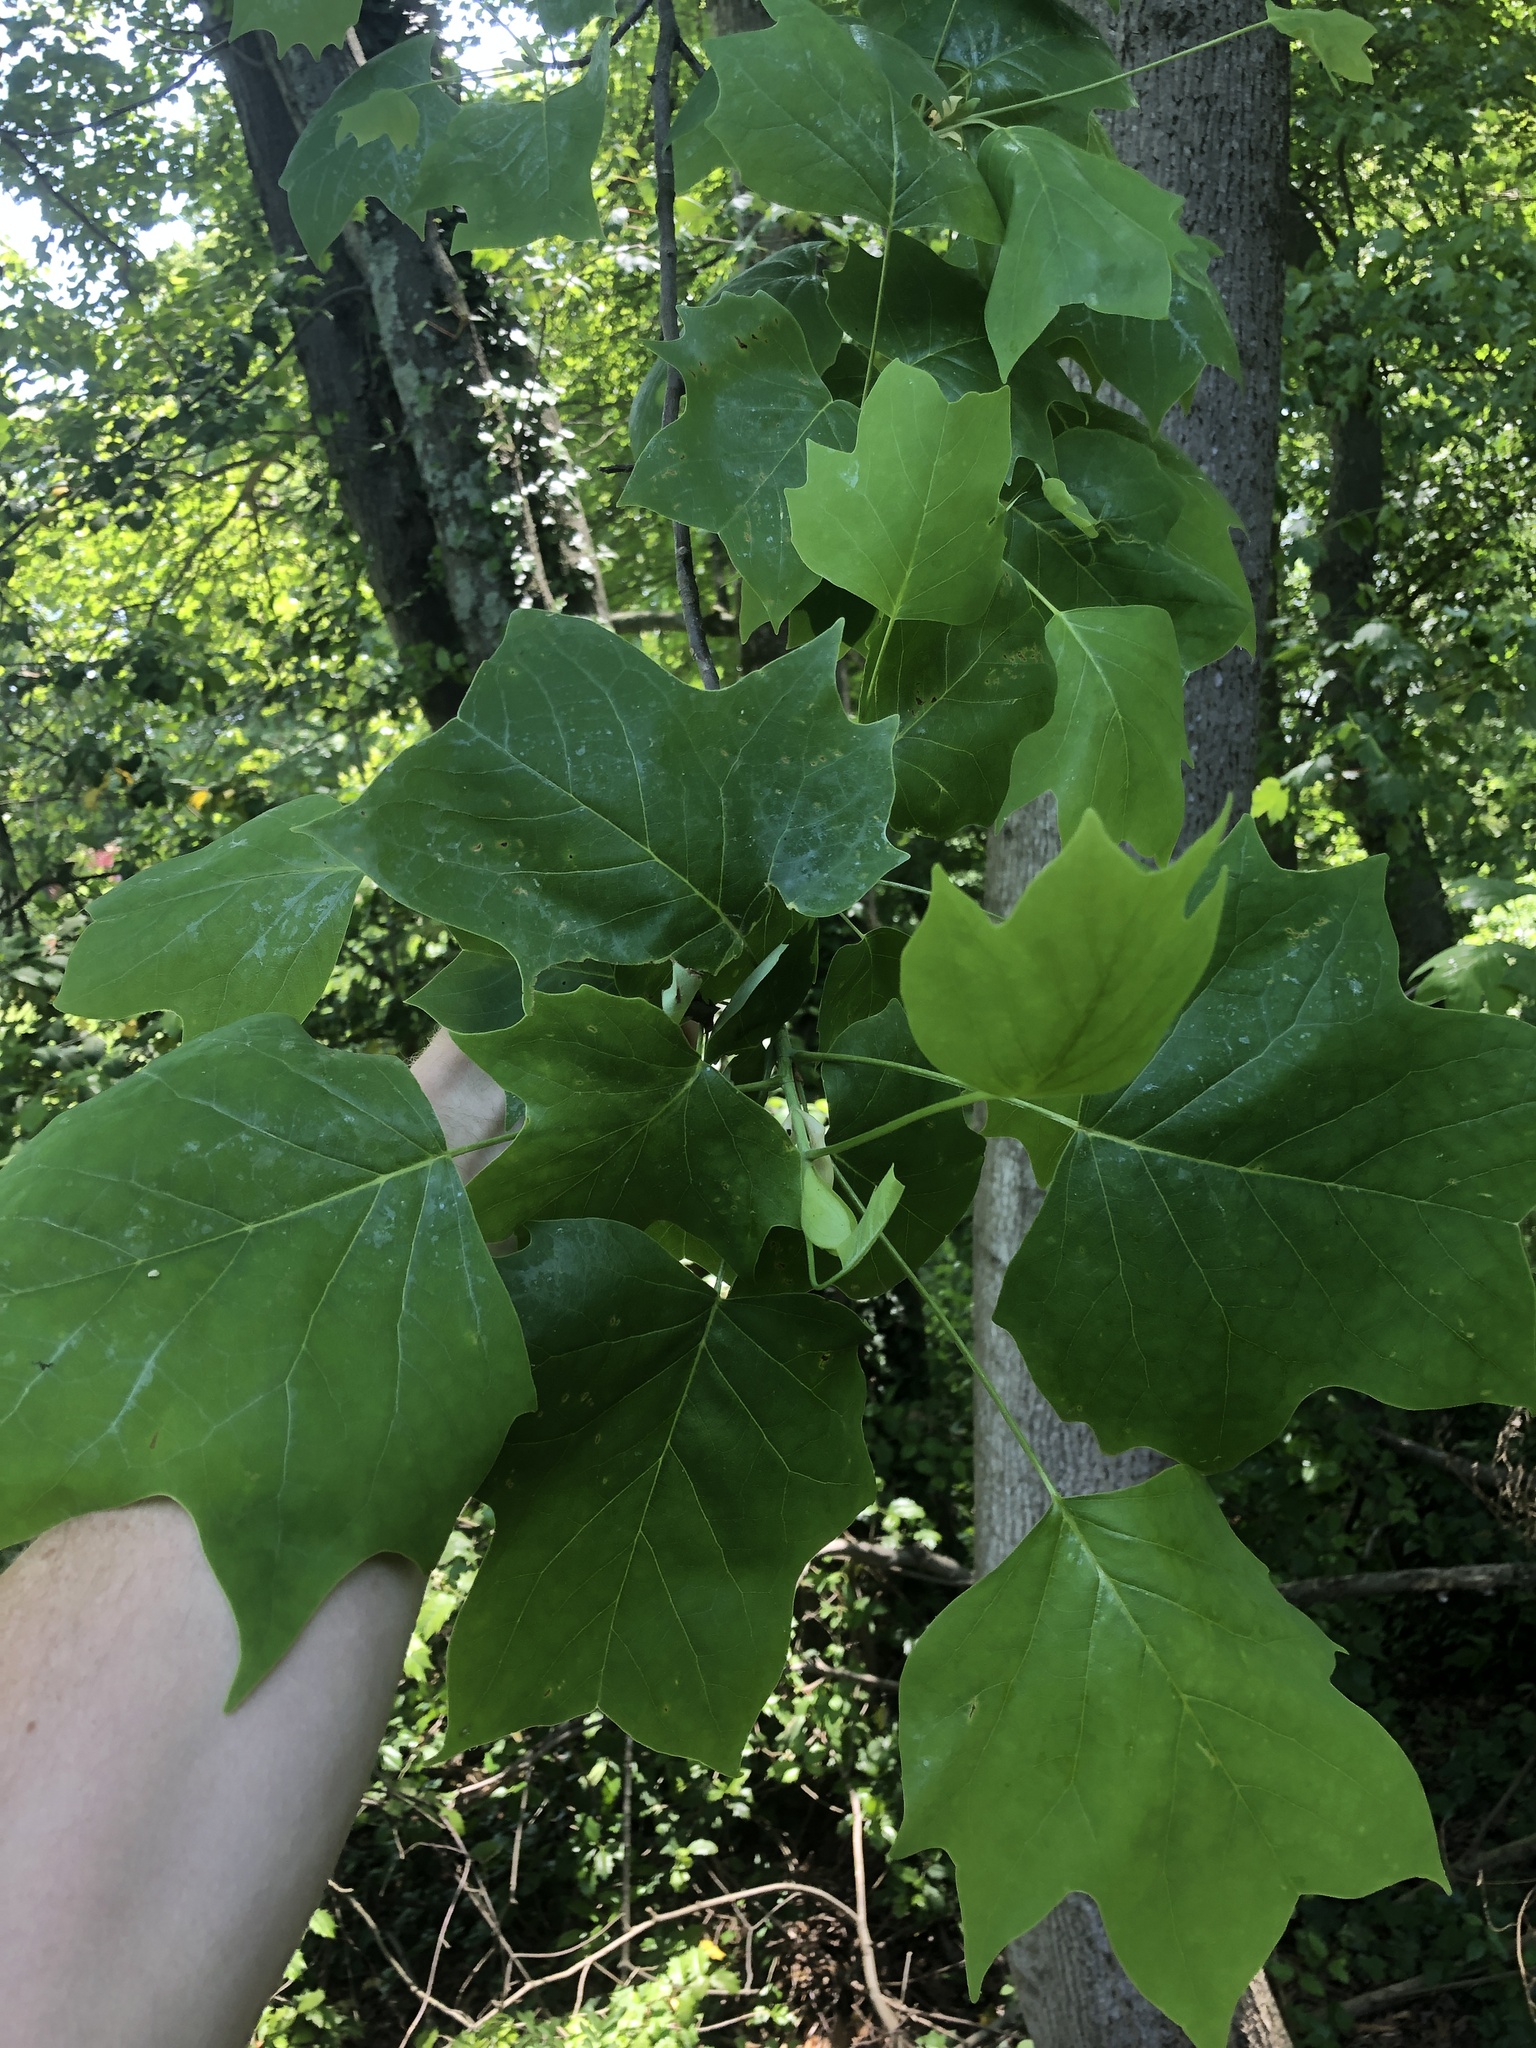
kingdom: Plantae
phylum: Tracheophyta
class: Magnoliopsida
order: Magnoliales
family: Magnoliaceae
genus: Liriodendron
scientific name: Liriodendron tulipifera
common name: Tulip tree
